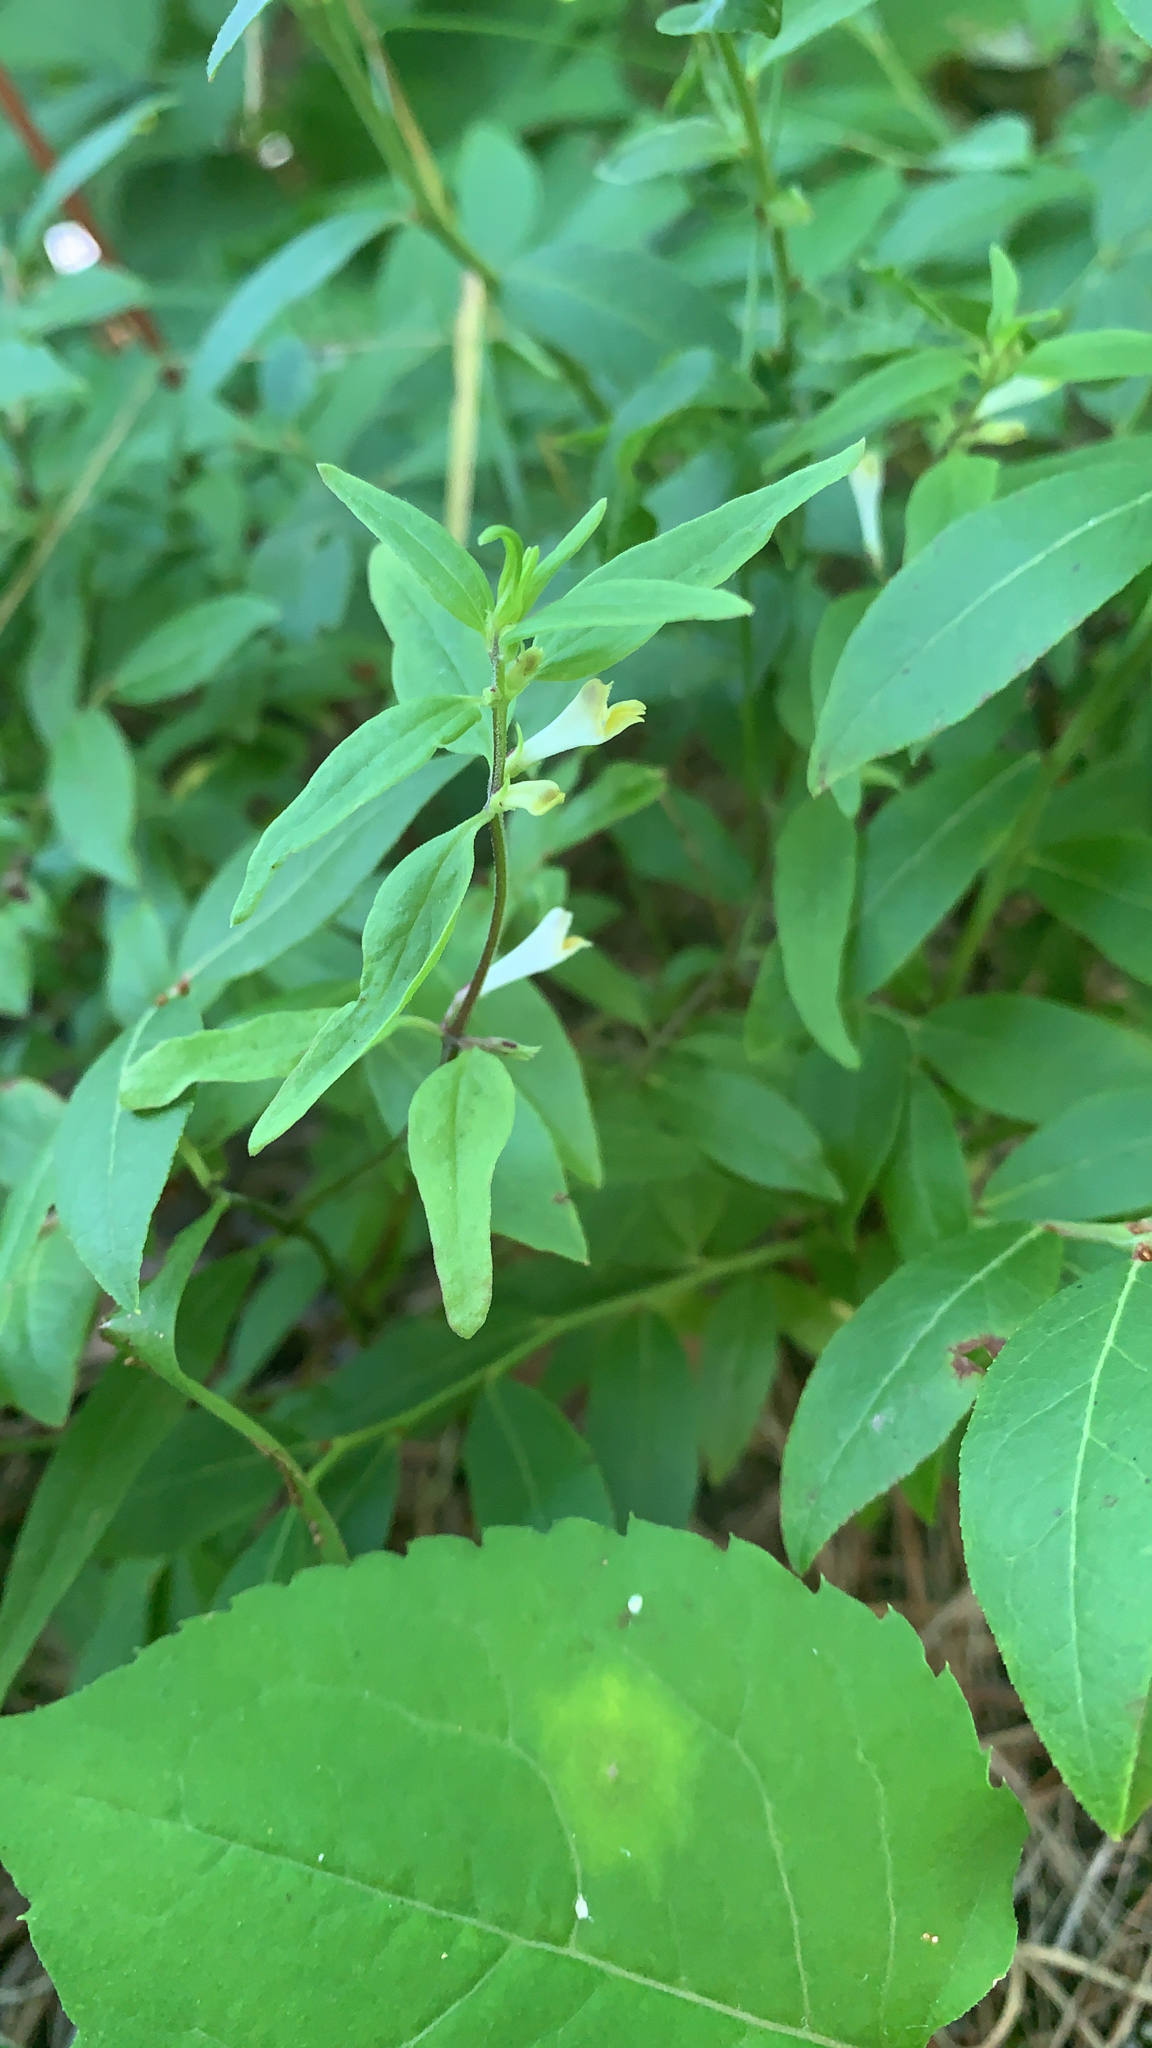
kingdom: Plantae
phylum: Tracheophyta
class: Magnoliopsida
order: Lamiales
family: Orobanchaceae
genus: Melampyrum
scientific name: Melampyrum lineare
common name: American cow-wheat
